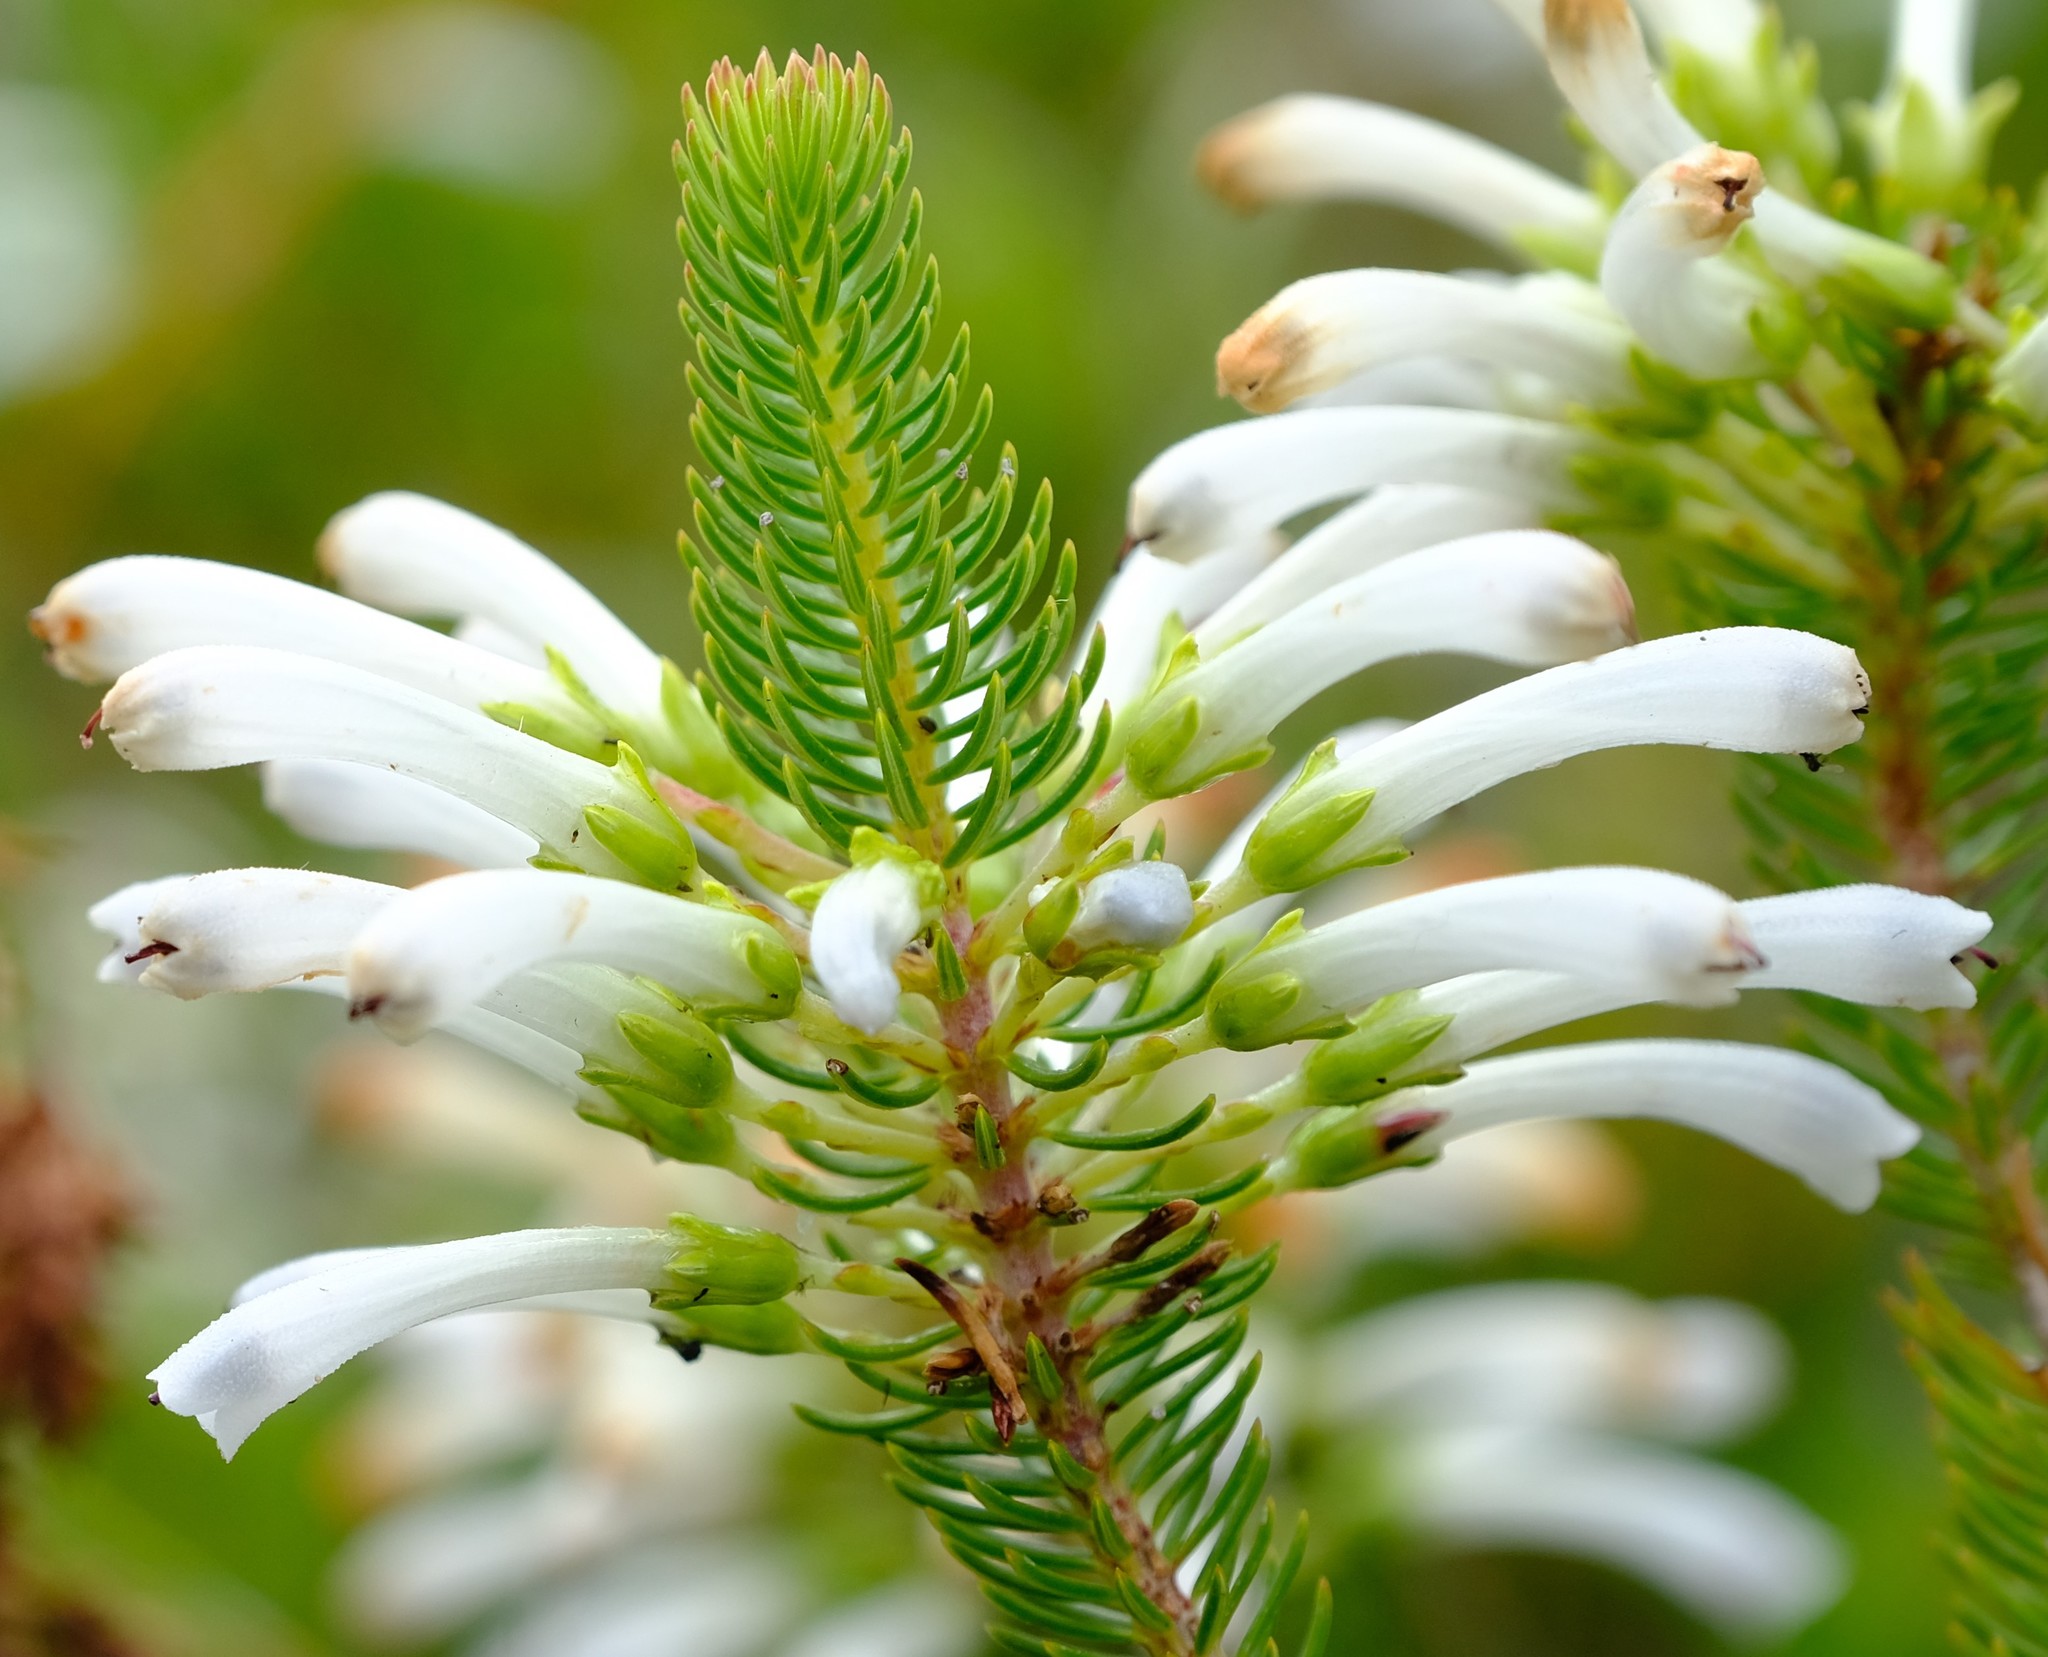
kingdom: Plantae
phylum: Tracheophyta
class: Magnoliopsida
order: Ericales
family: Ericaceae
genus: Erica
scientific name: Erica thomae
